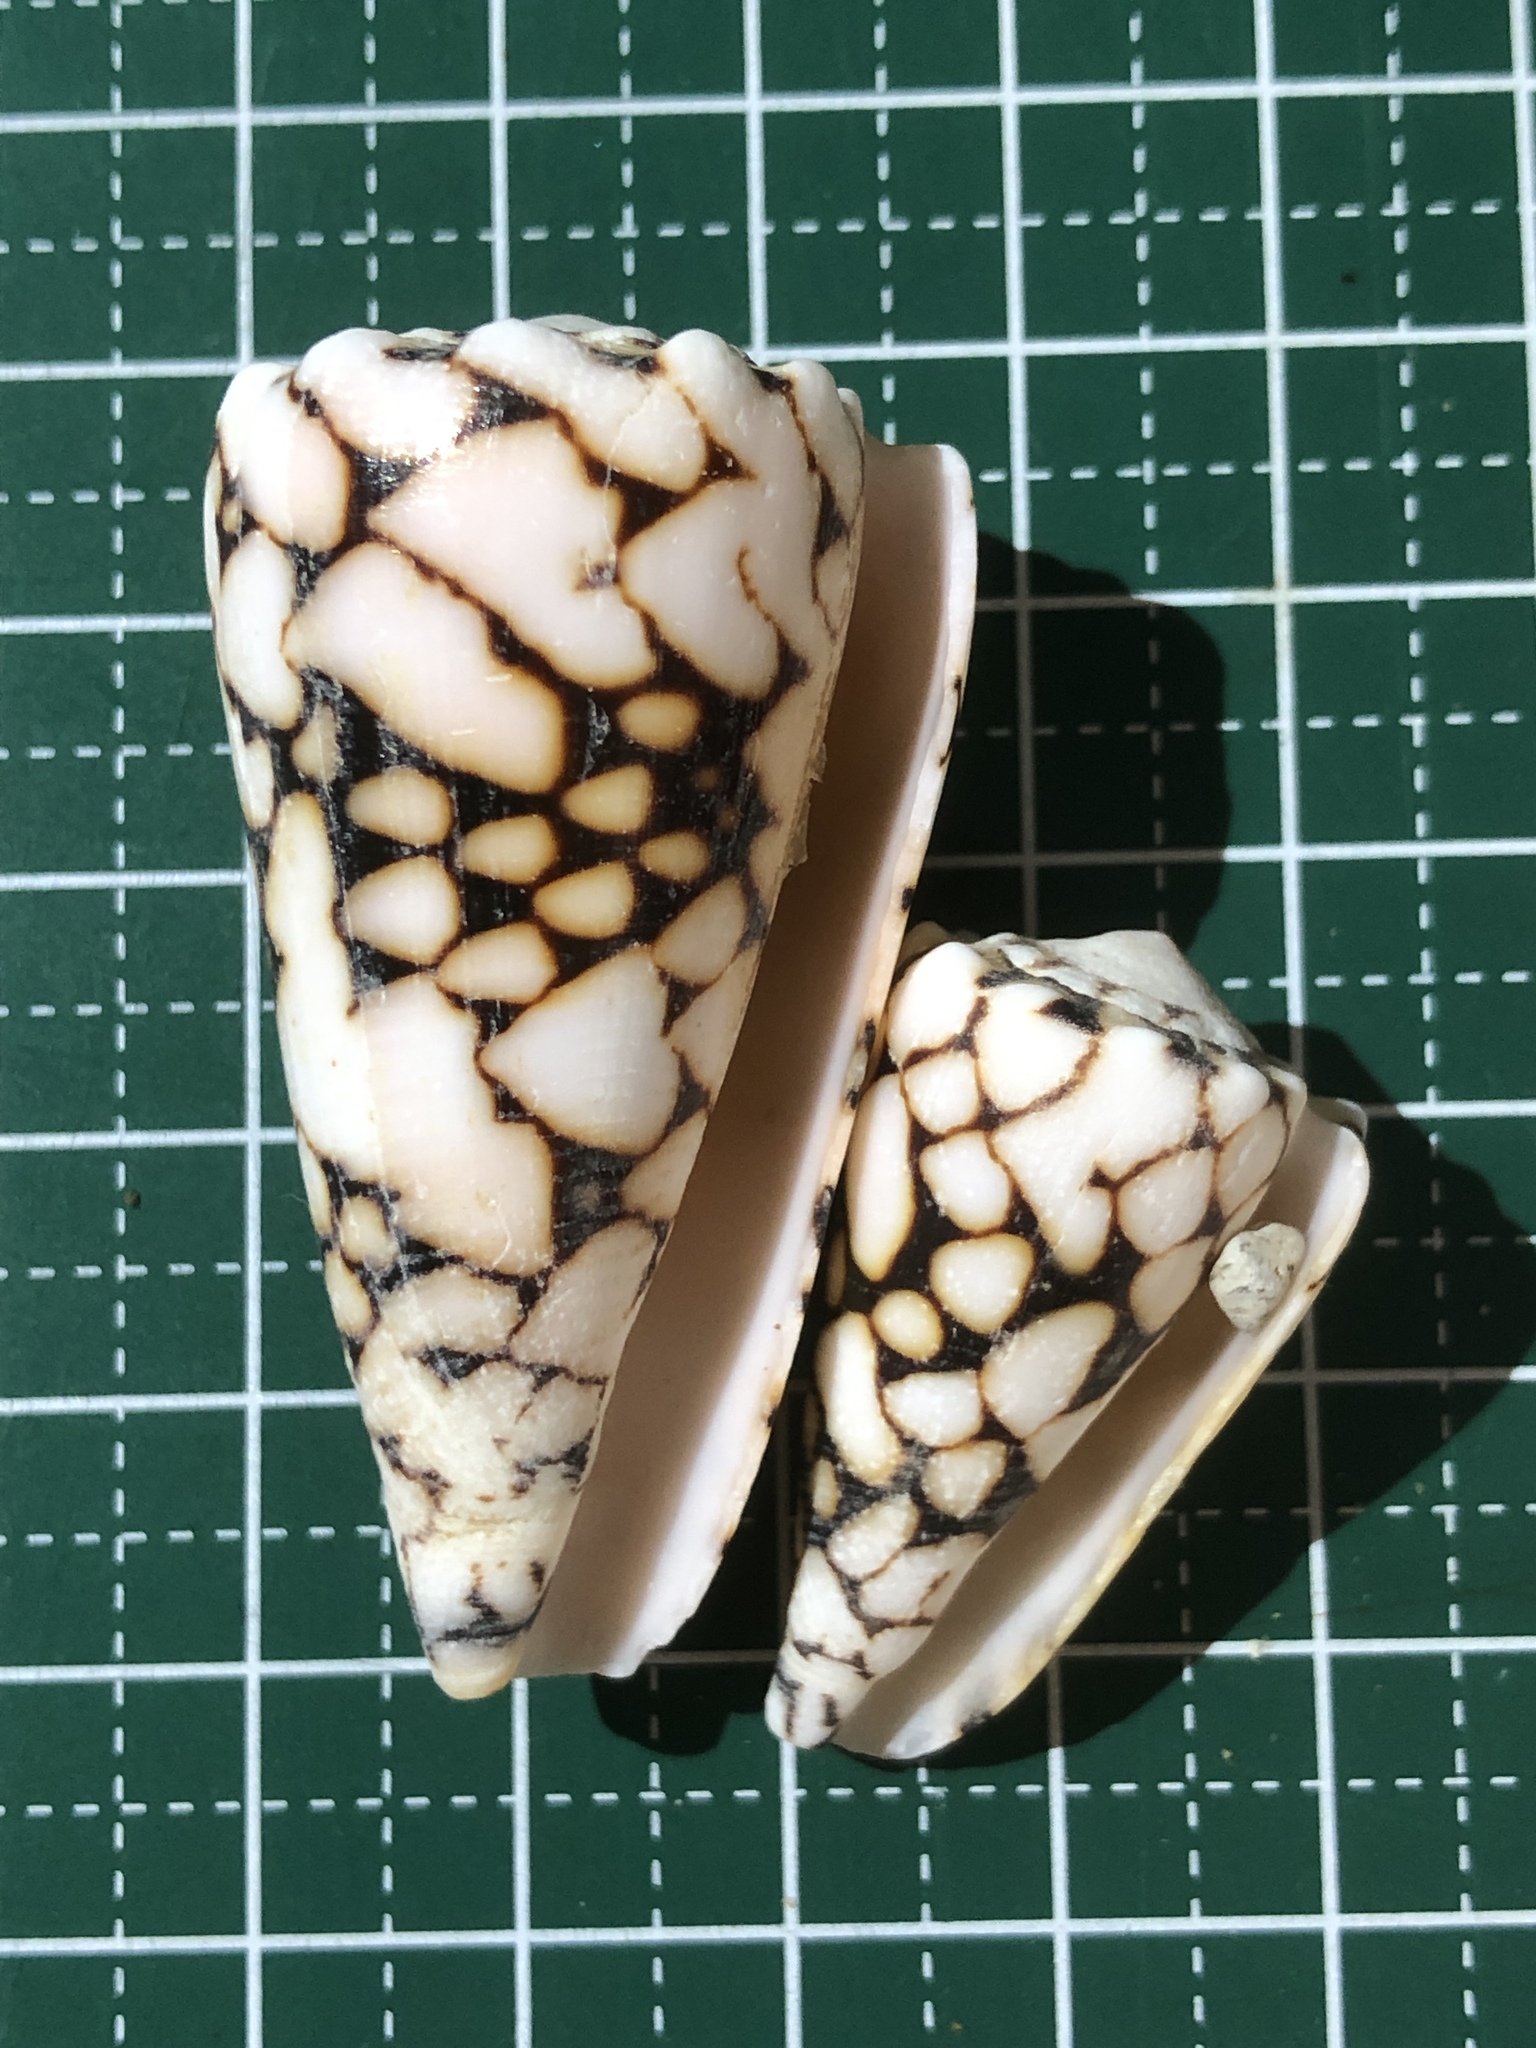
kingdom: Animalia
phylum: Mollusca
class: Gastropoda
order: Neogastropoda
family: Conidae
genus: Conus
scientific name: Conus bandanus
